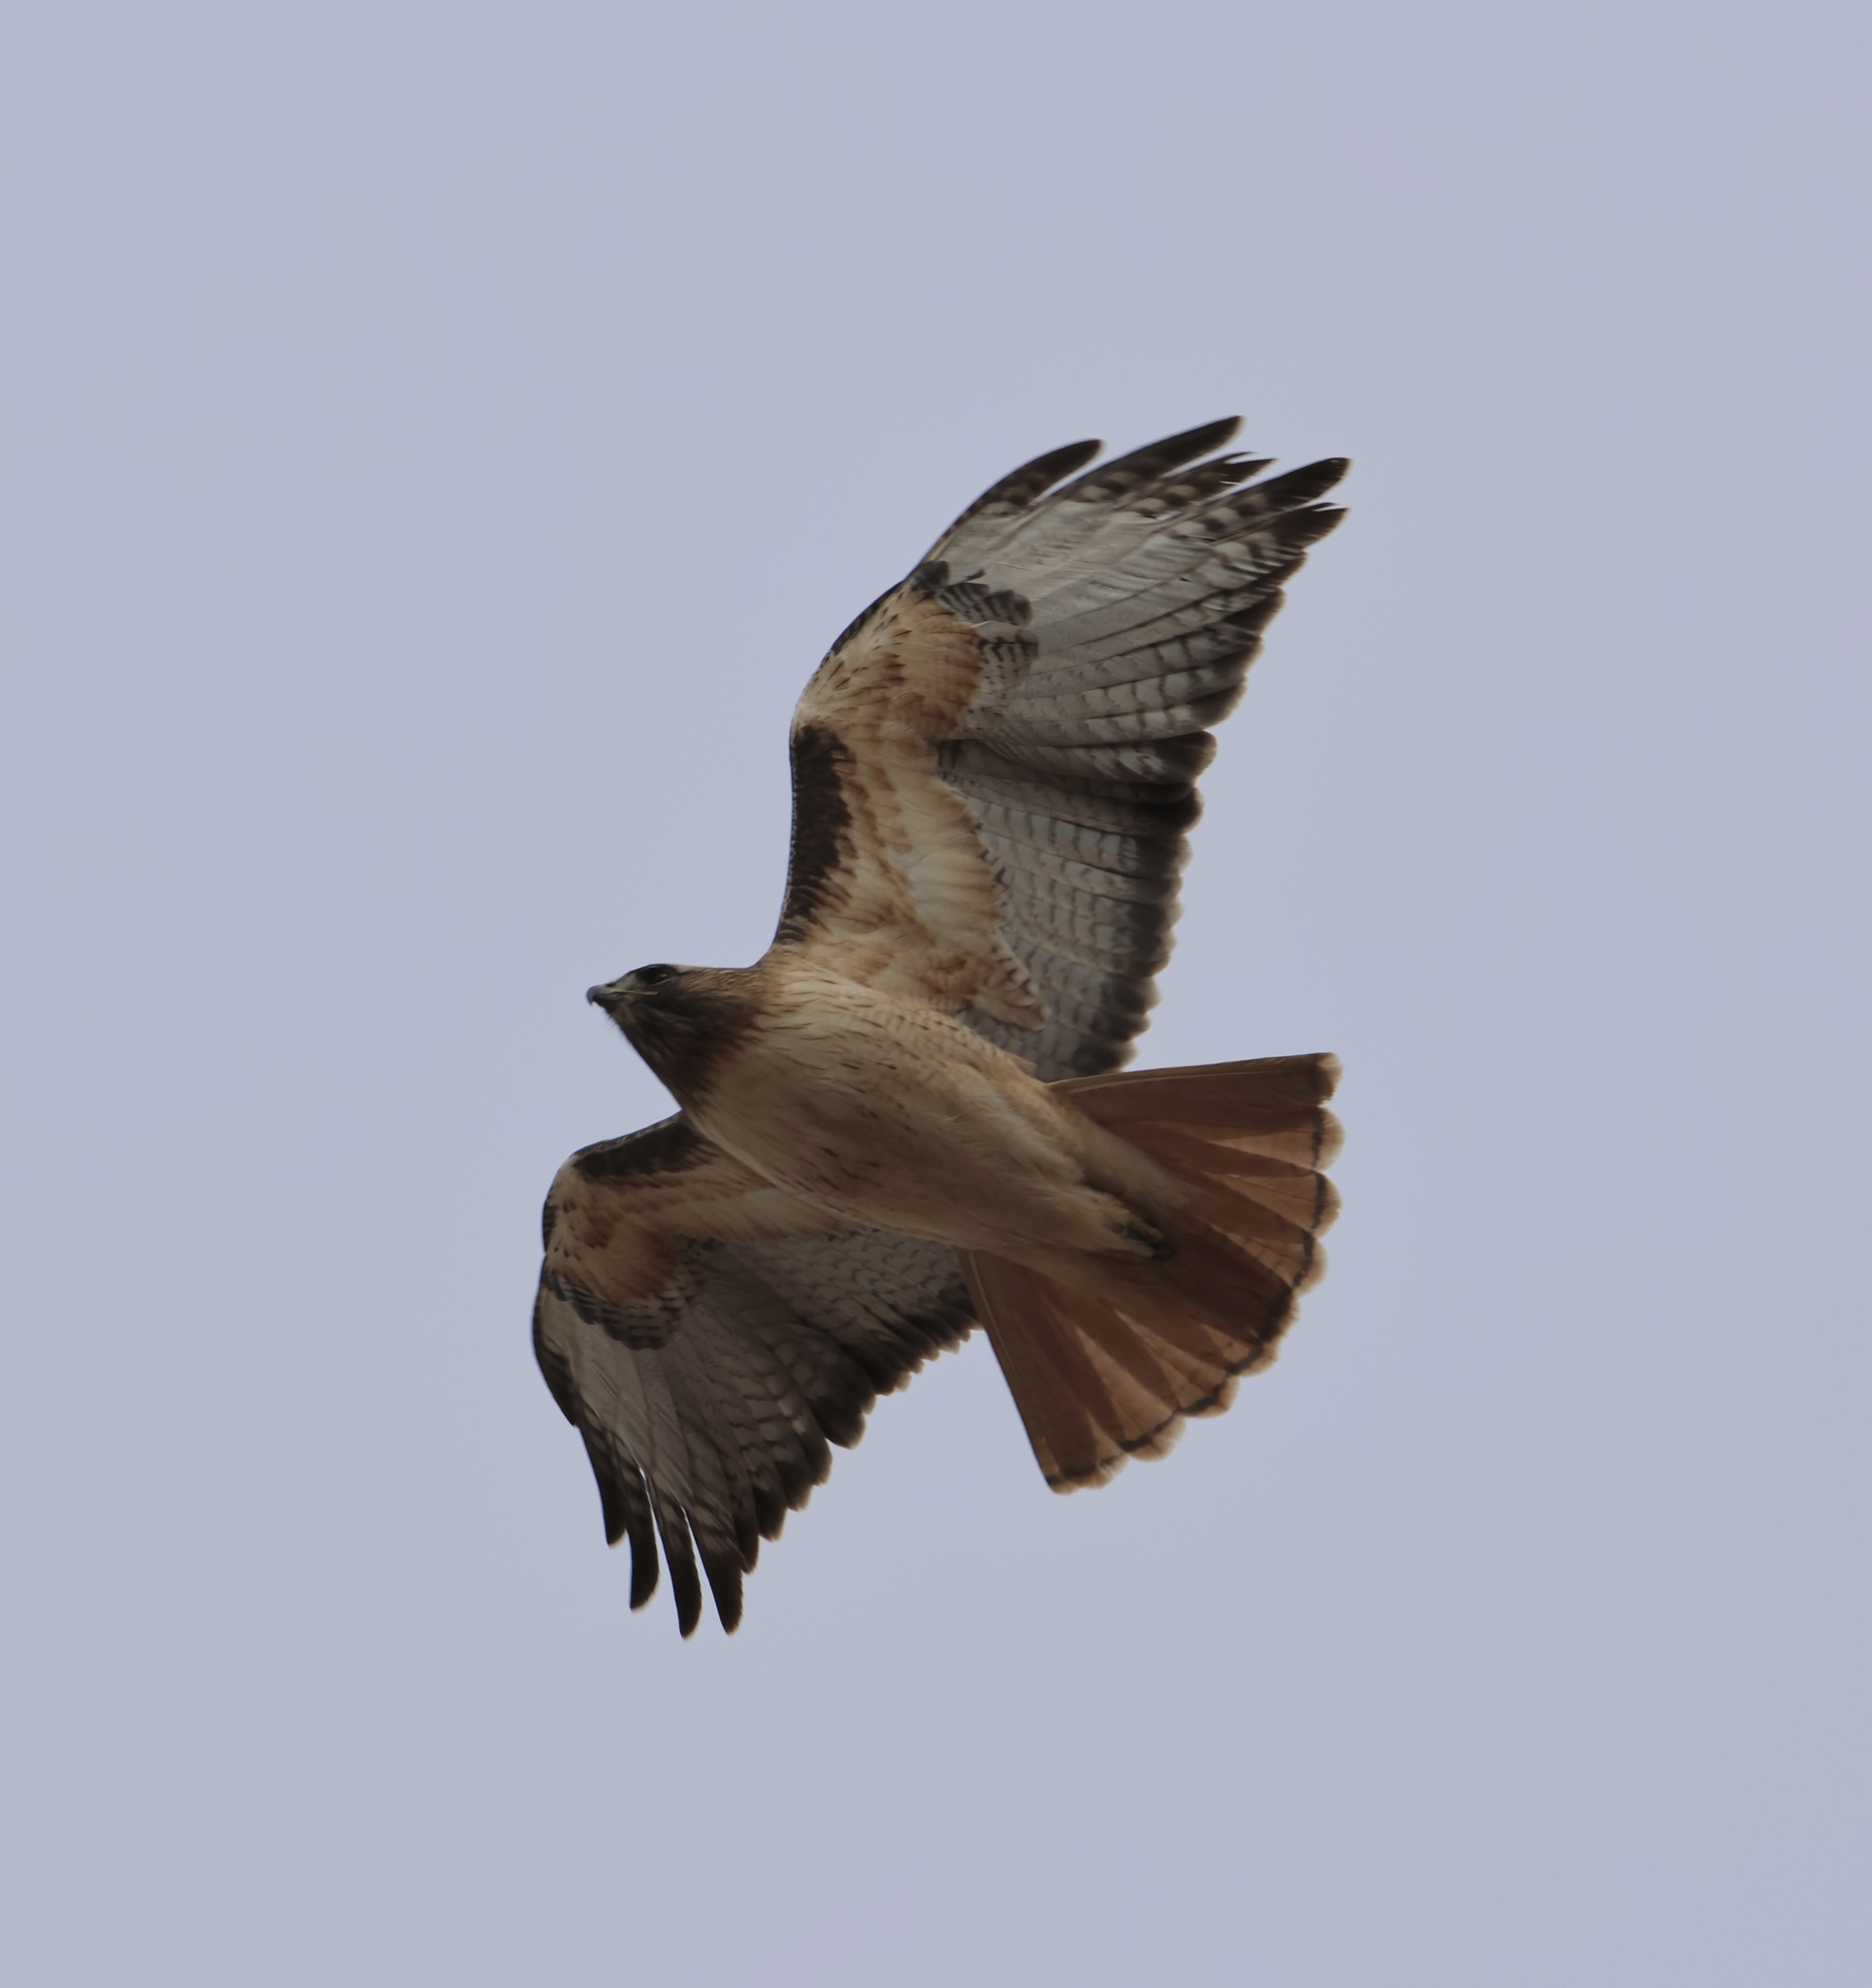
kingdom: Animalia
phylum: Chordata
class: Aves
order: Accipitriformes
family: Accipitridae
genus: Buteo
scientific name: Buteo jamaicensis
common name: Red-tailed hawk
